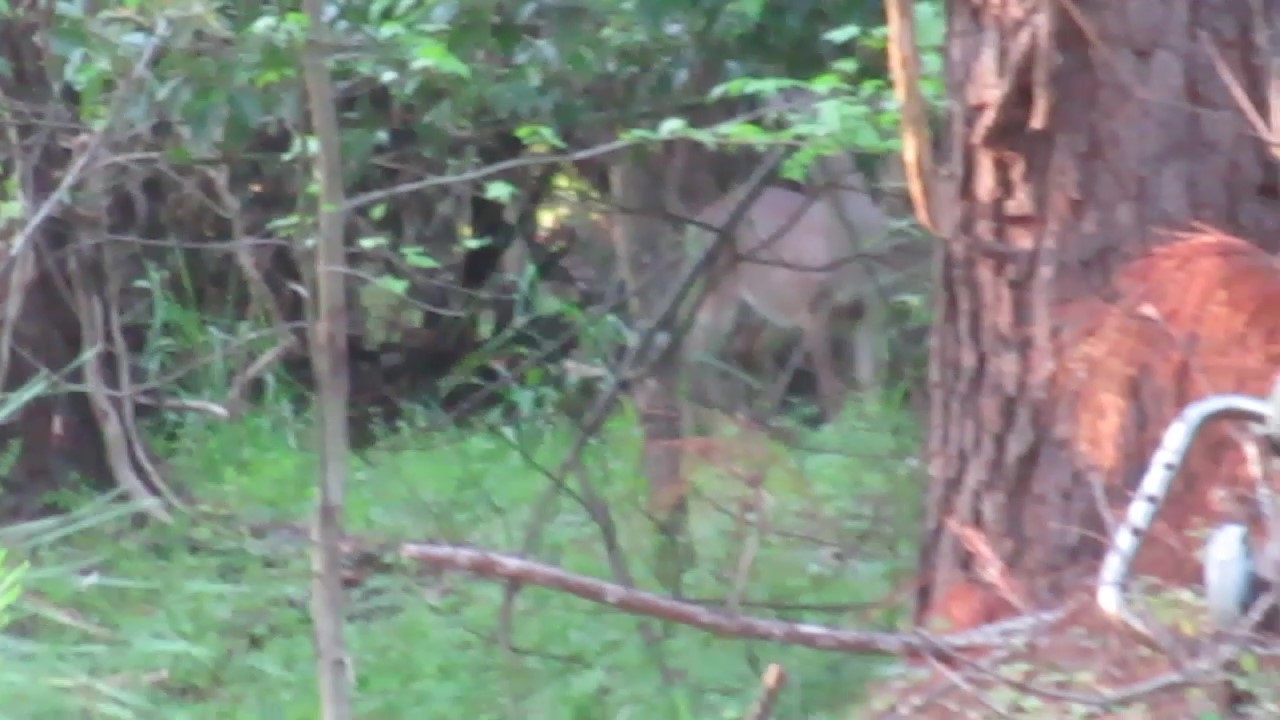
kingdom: Animalia
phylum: Chordata
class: Mammalia
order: Artiodactyla
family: Cervidae
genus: Odocoileus
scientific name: Odocoileus virginianus
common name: White-tailed deer
